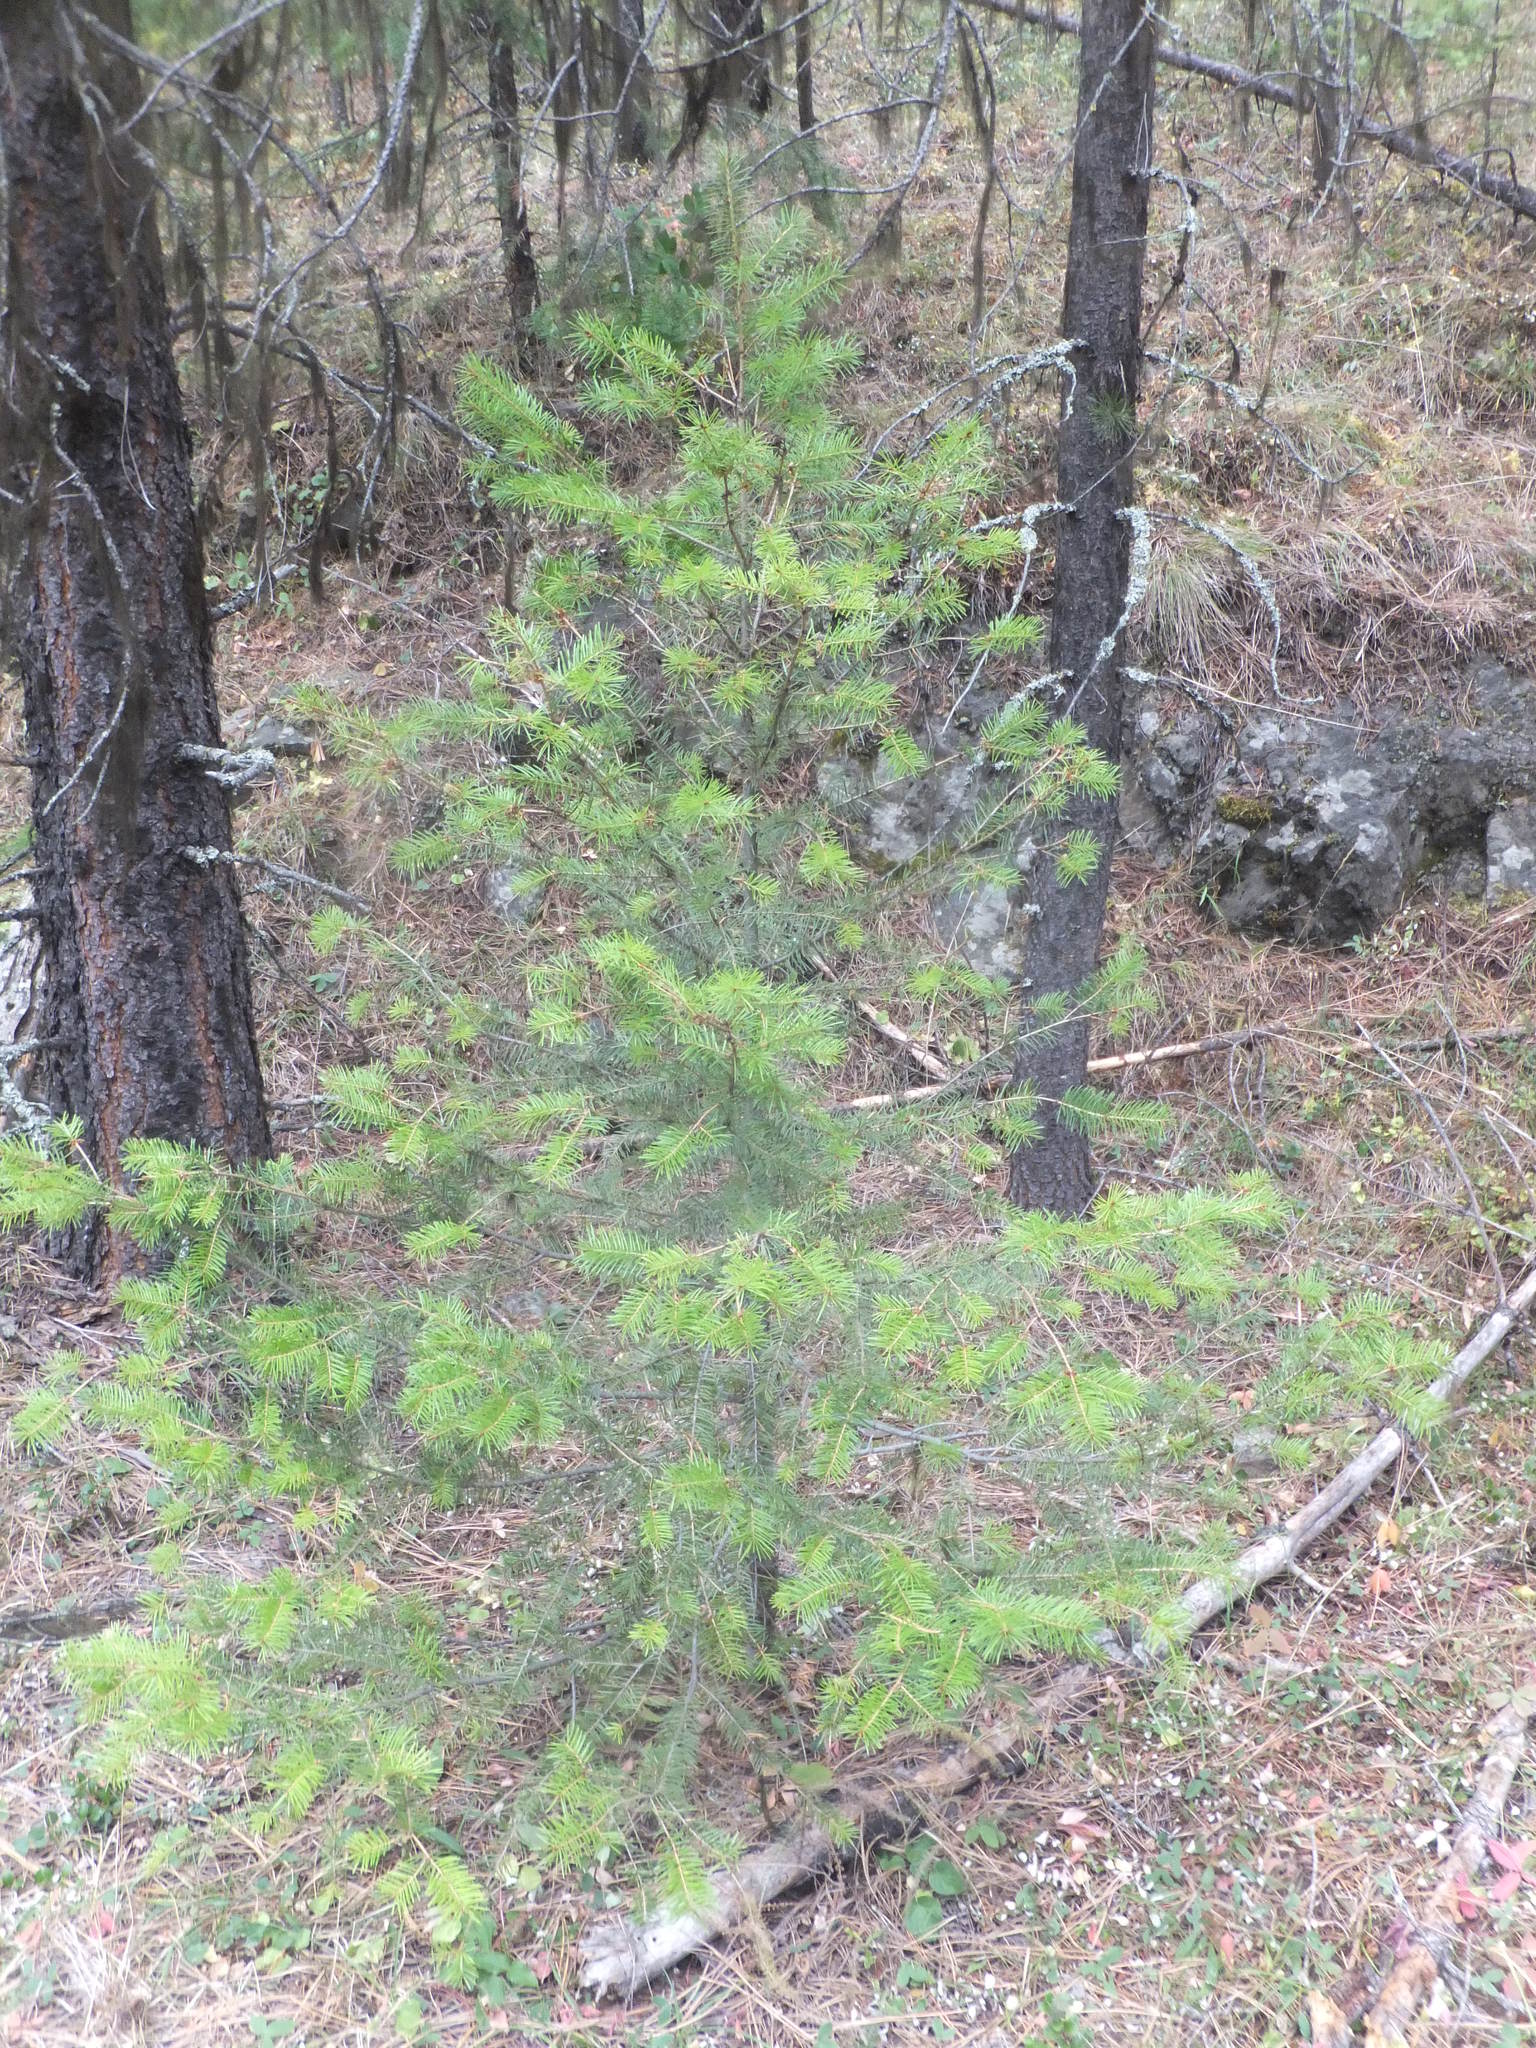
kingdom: Plantae
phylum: Tracheophyta
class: Pinopsida
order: Pinales
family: Pinaceae
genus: Pseudotsuga
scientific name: Pseudotsuga menziesii
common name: Douglas fir
